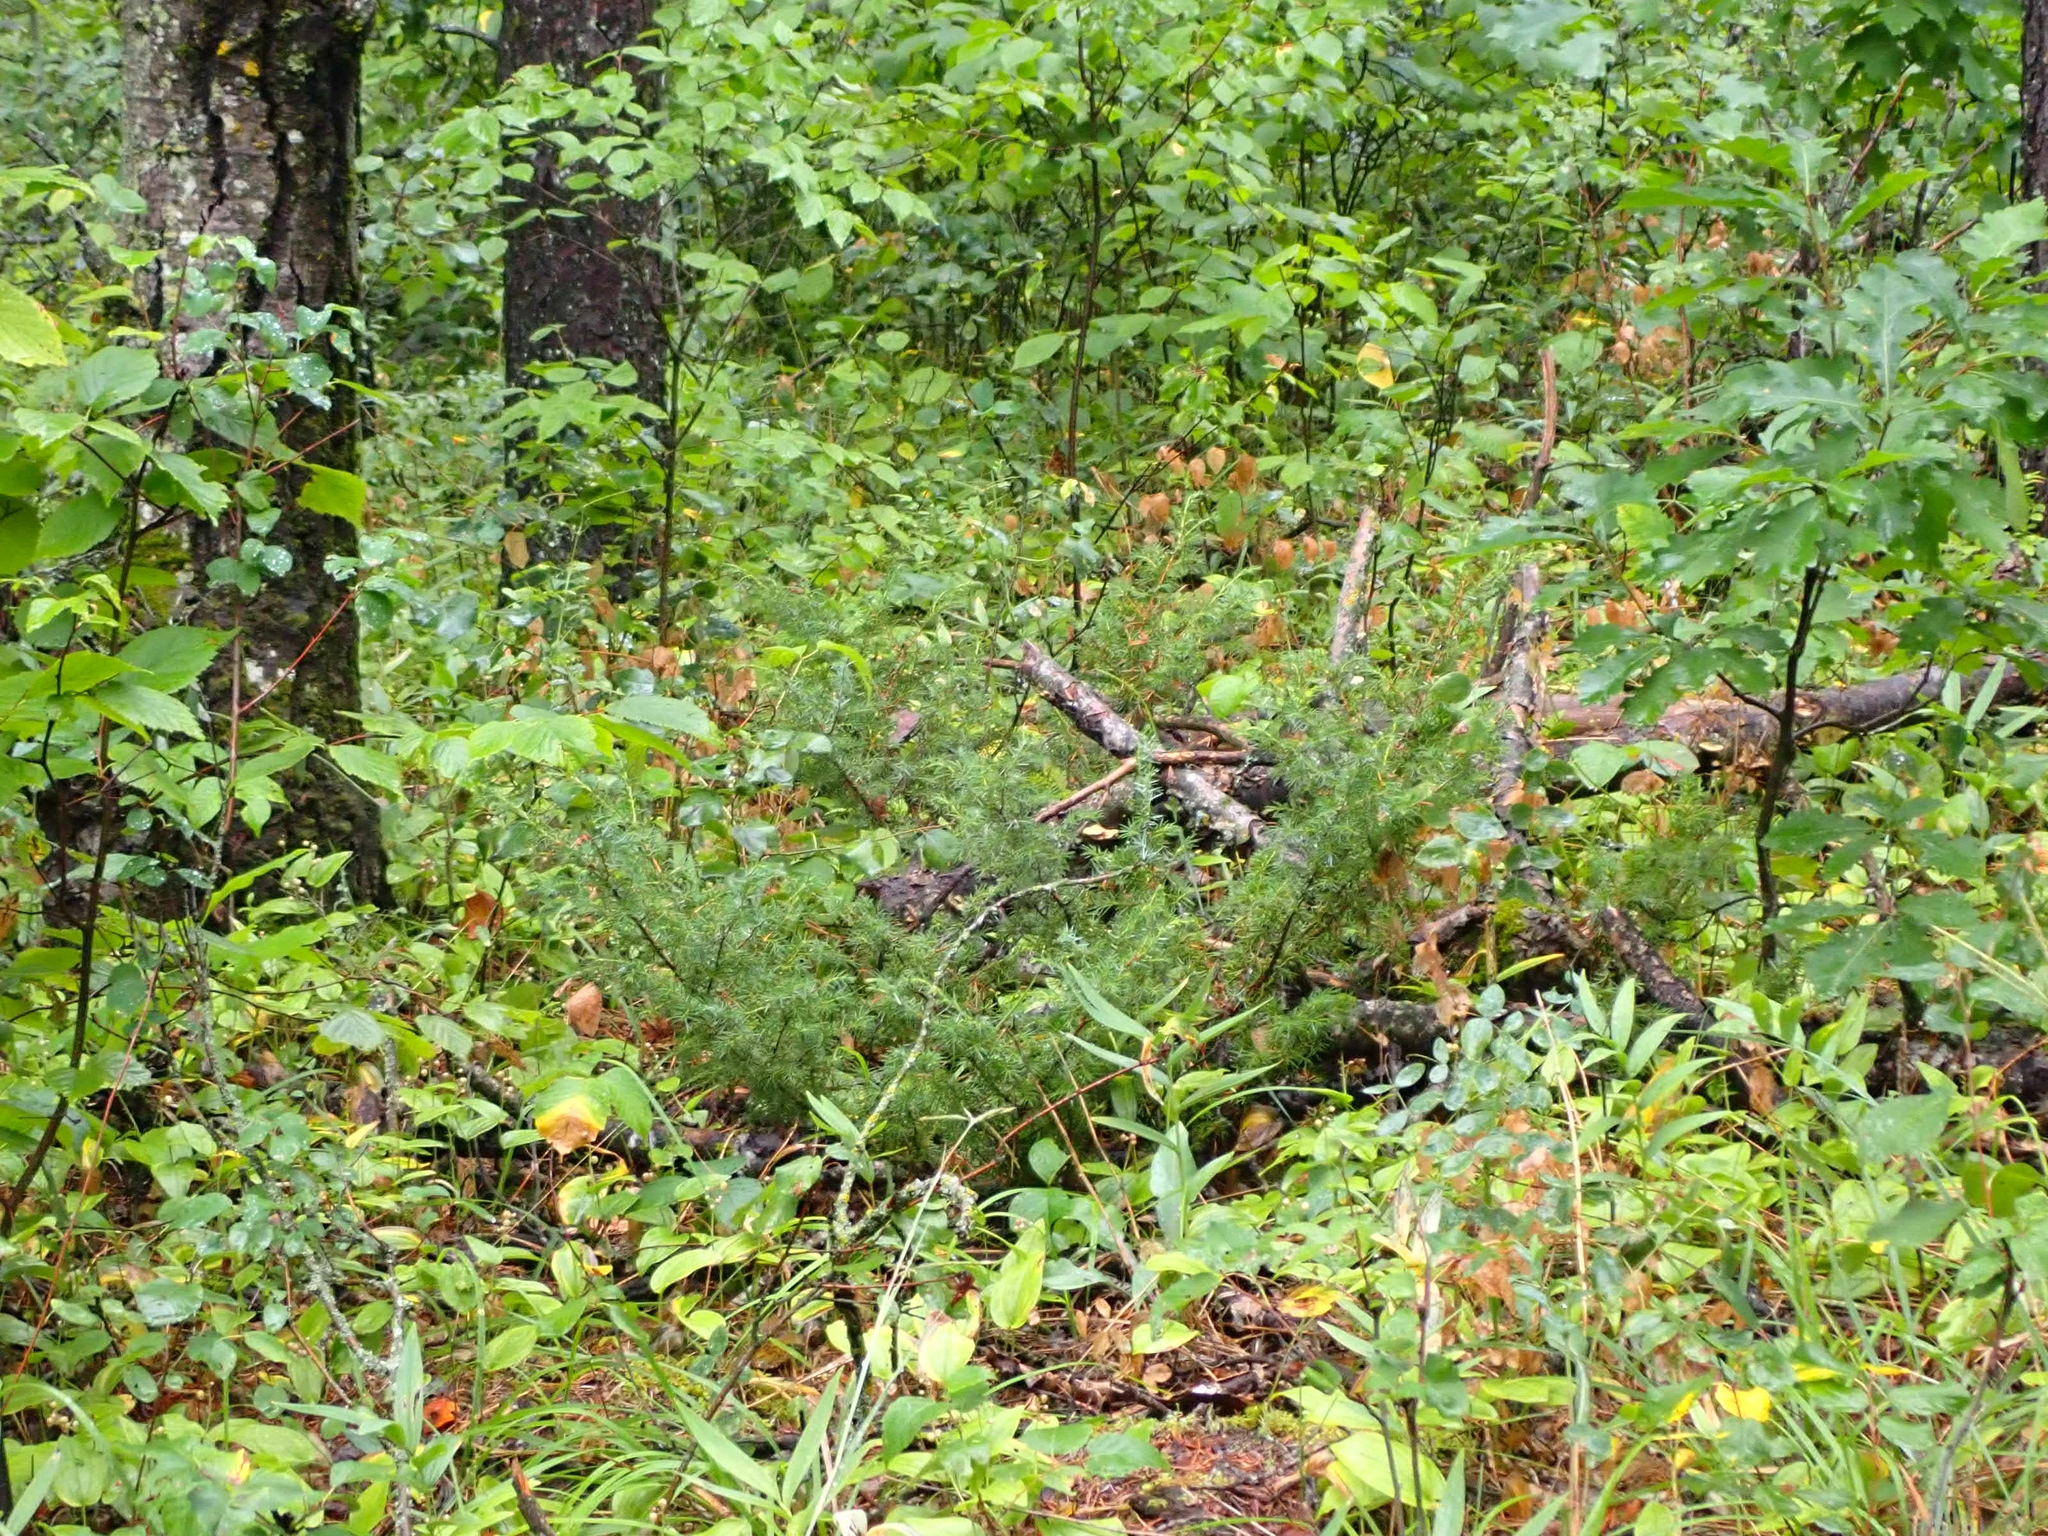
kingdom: Plantae
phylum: Tracheophyta
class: Pinopsida
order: Pinales
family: Cupressaceae
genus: Juniperus
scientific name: Juniperus communis
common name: Common juniper
